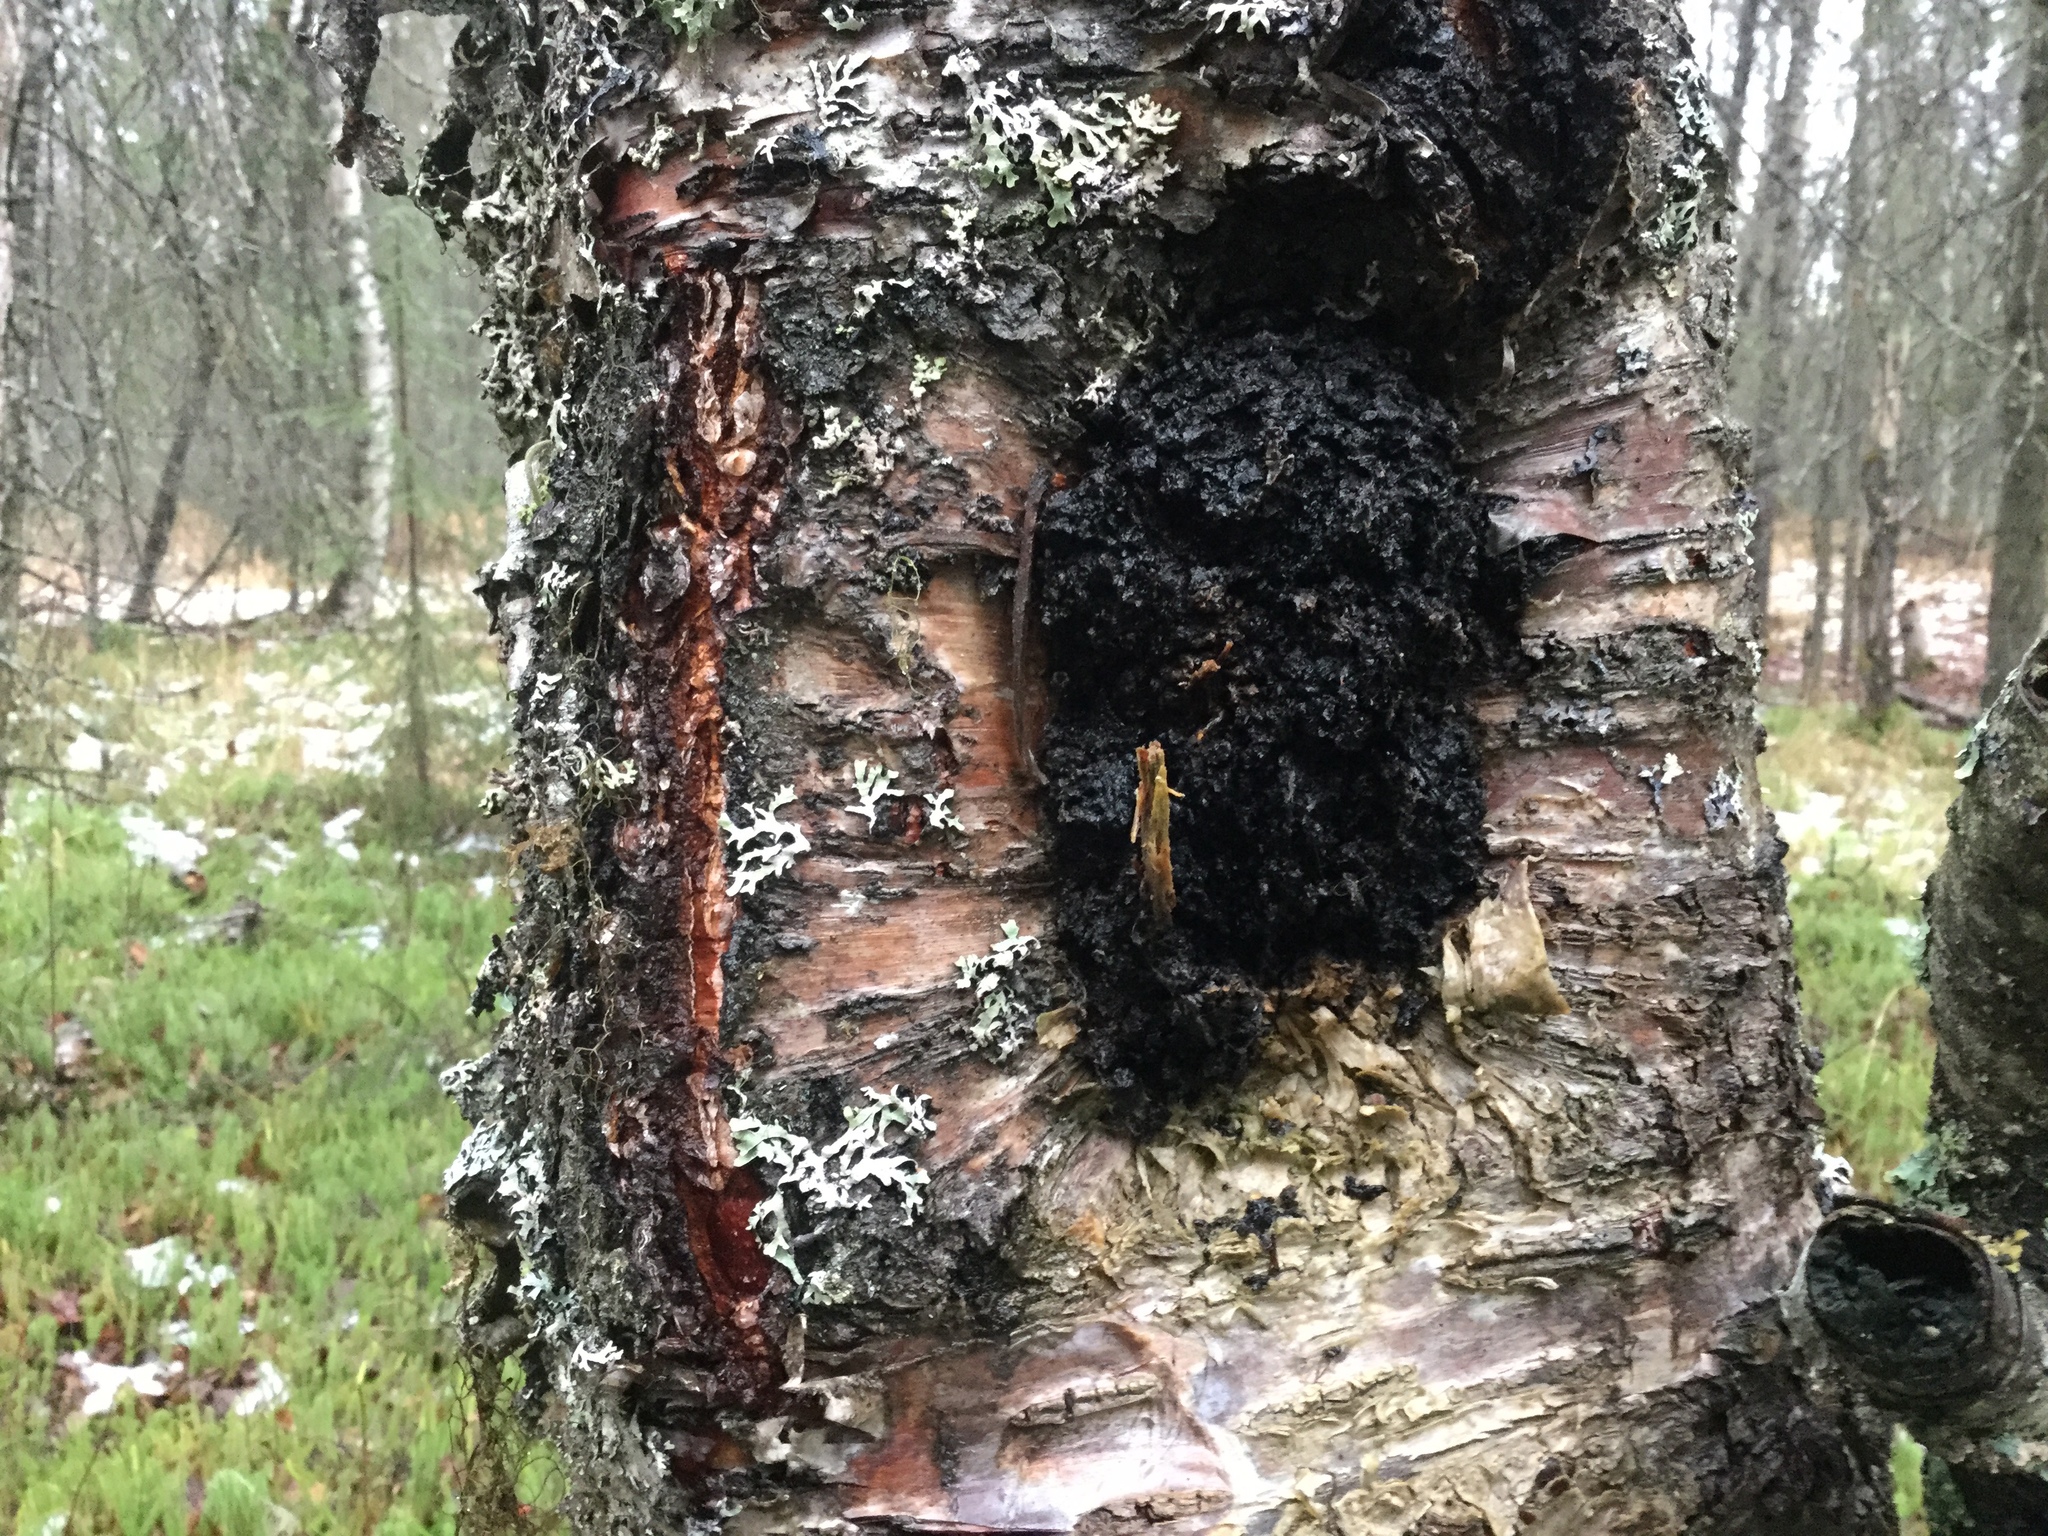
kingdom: Fungi
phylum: Basidiomycota
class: Agaricomycetes
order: Hymenochaetales
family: Hymenochaetaceae
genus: Inonotus
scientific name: Inonotus obliquus
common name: Chaga
